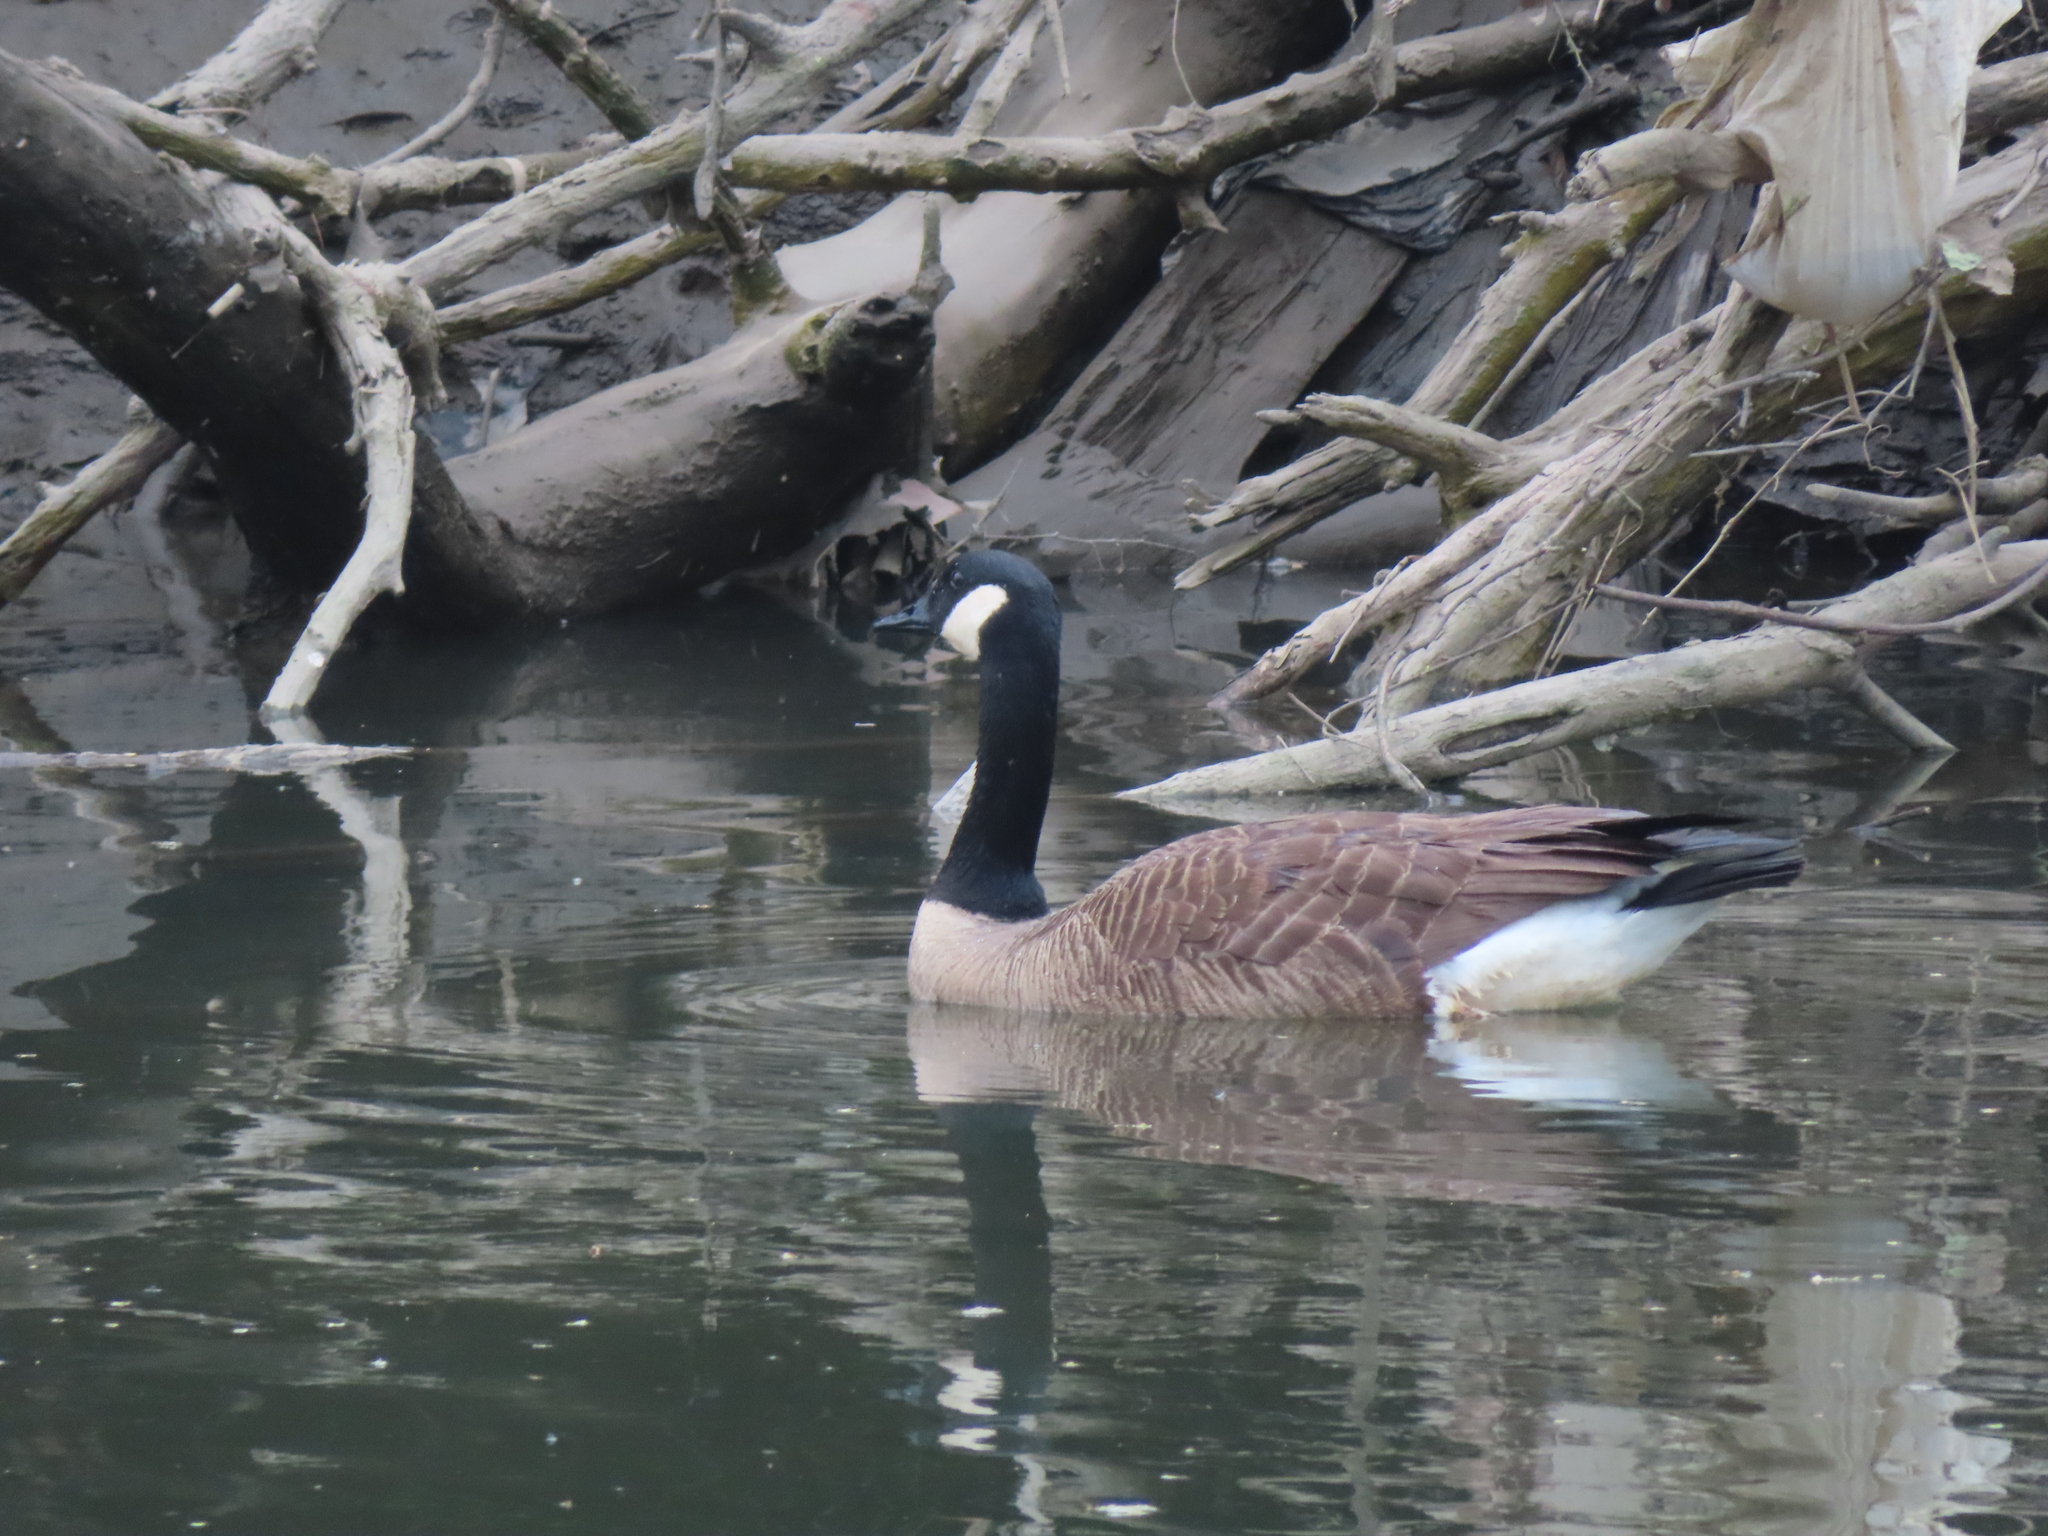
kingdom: Animalia
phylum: Chordata
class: Aves
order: Anseriformes
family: Anatidae
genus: Branta
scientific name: Branta canadensis
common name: Canada goose
